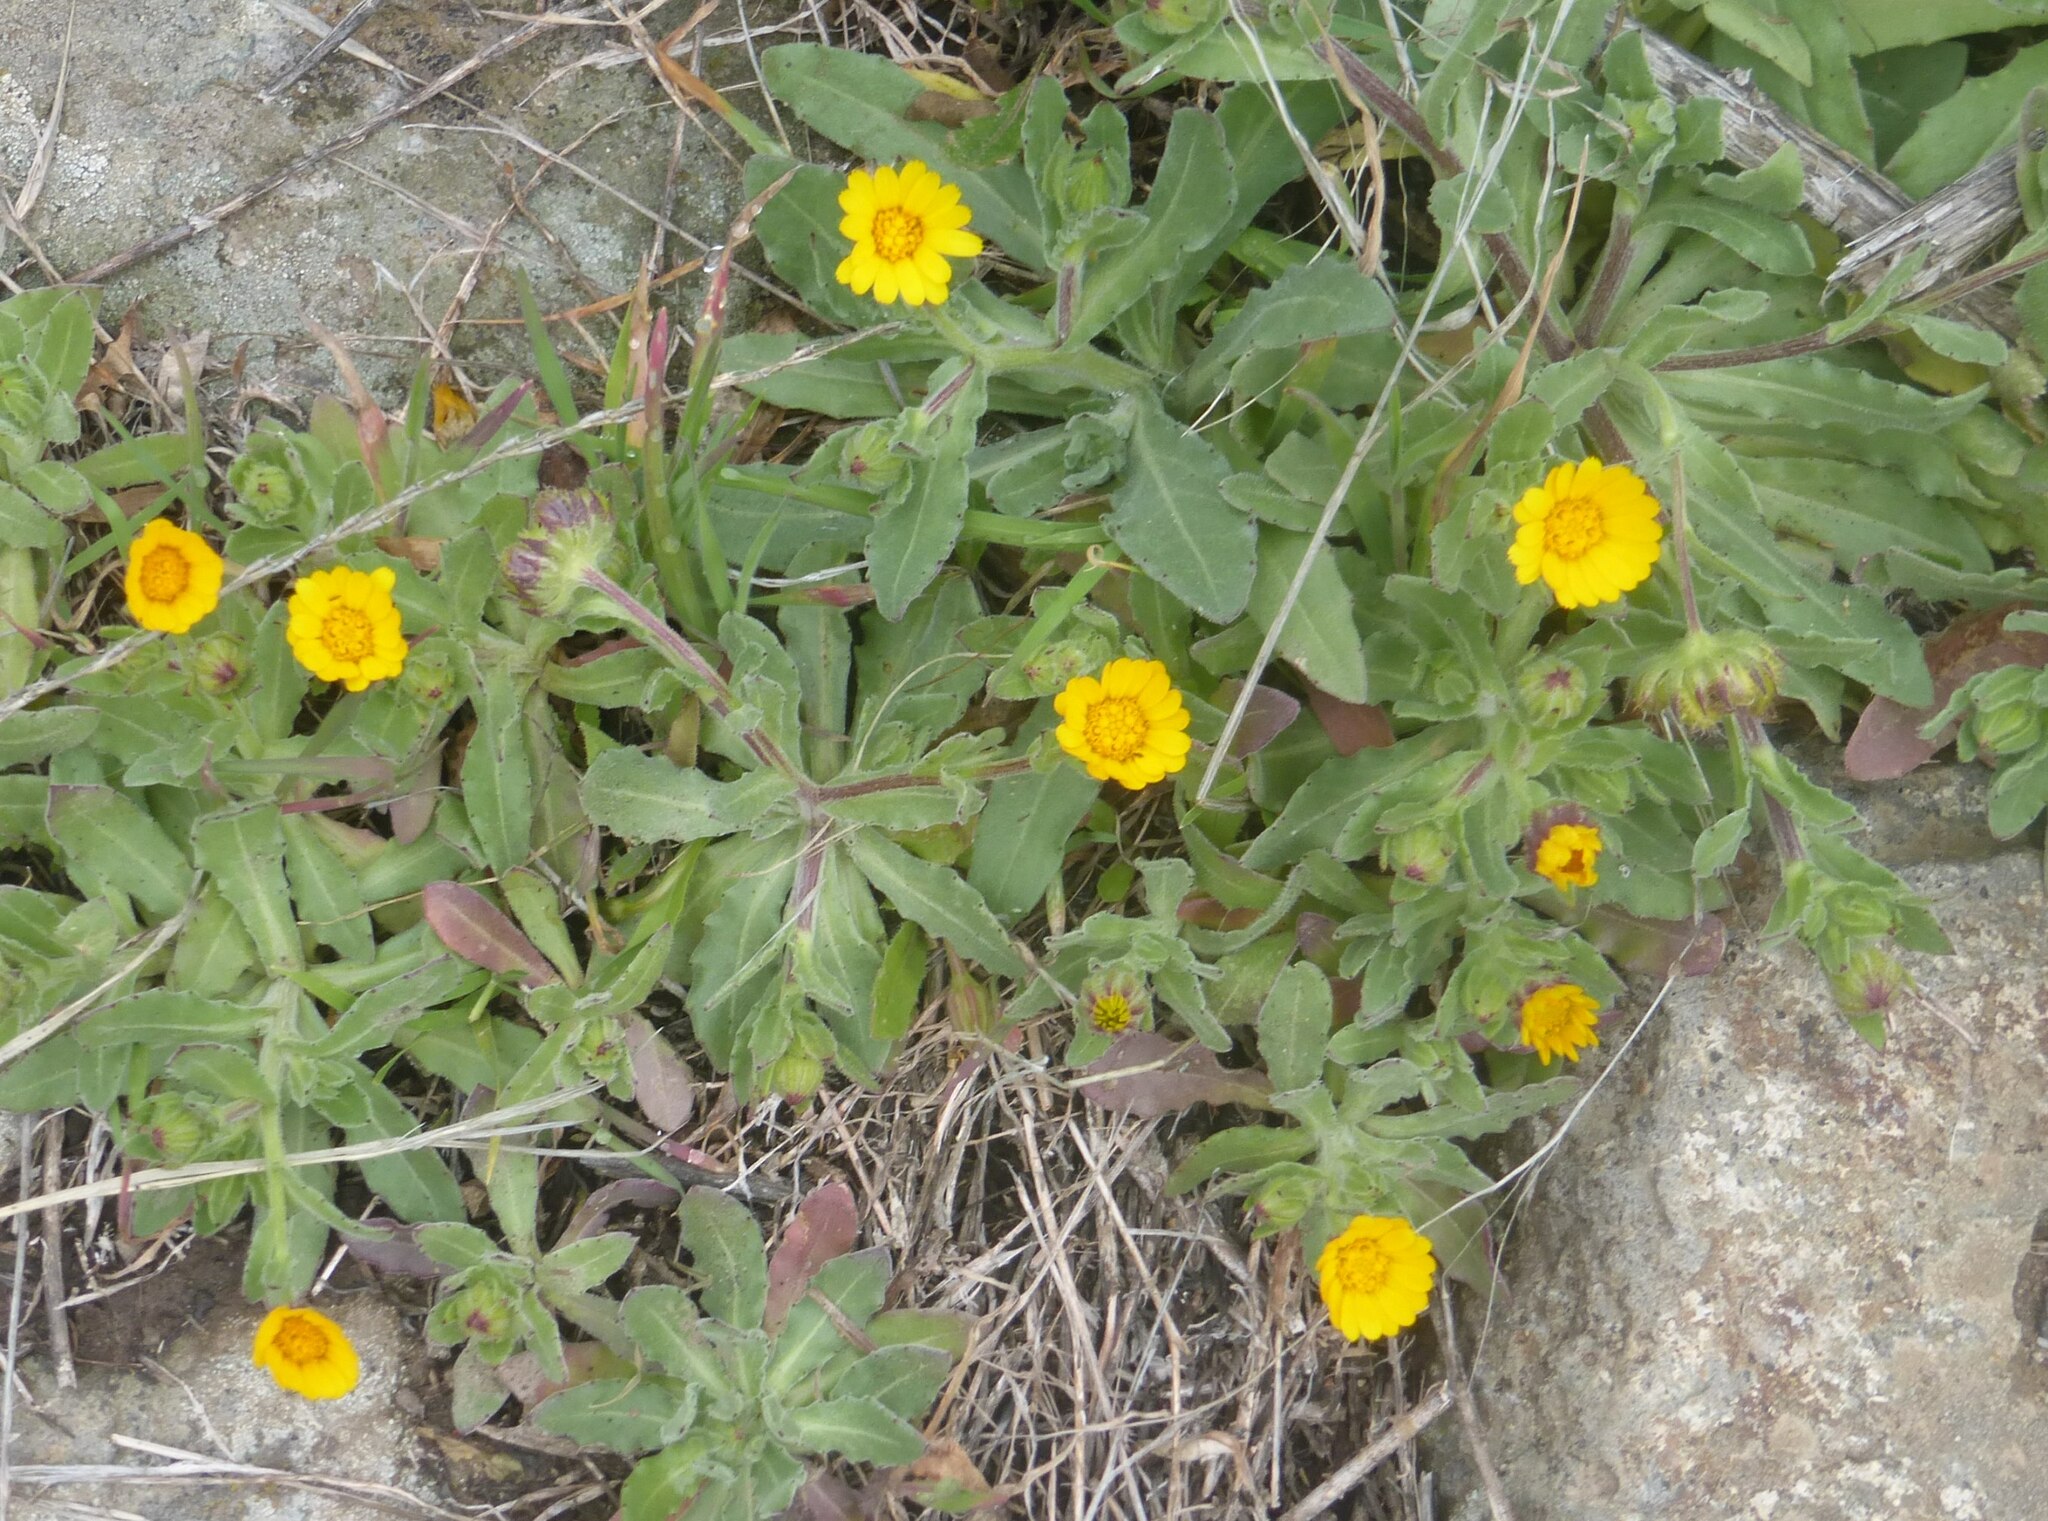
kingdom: Plantae
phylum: Tracheophyta
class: Magnoliopsida
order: Asterales
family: Asteraceae
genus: Calendula
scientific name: Calendula arvensis
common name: Field marigold
